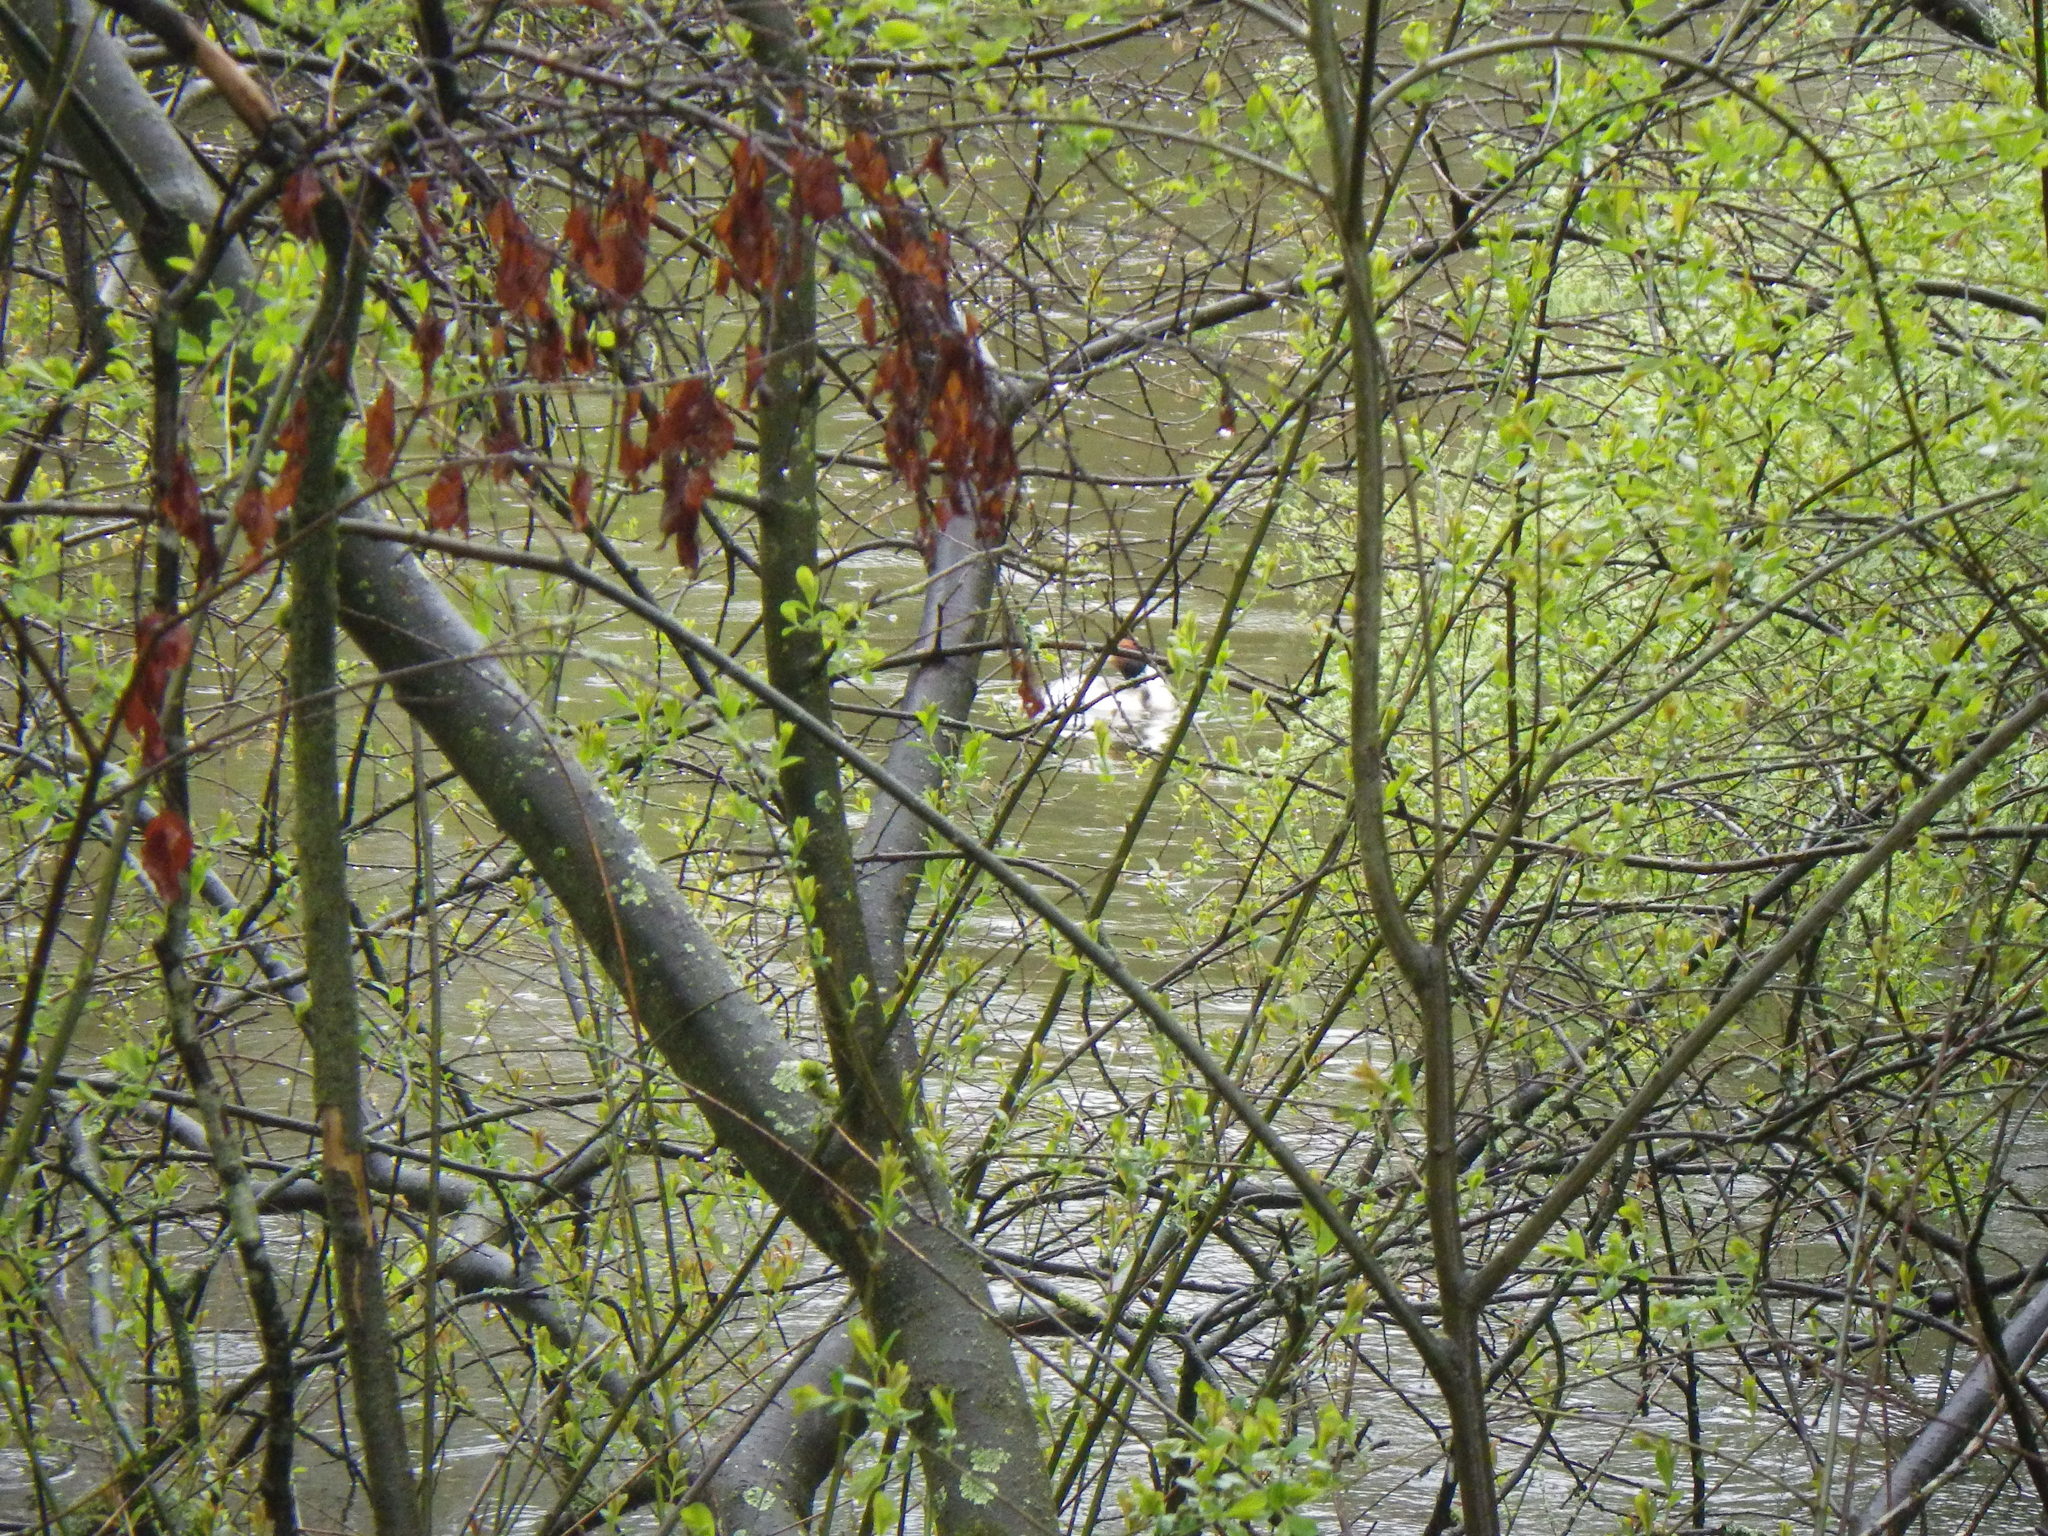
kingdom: Animalia
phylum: Chordata
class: Aves
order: Podicipediformes
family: Podicipedidae
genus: Podiceps
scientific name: Podiceps cristatus
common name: Great crested grebe
